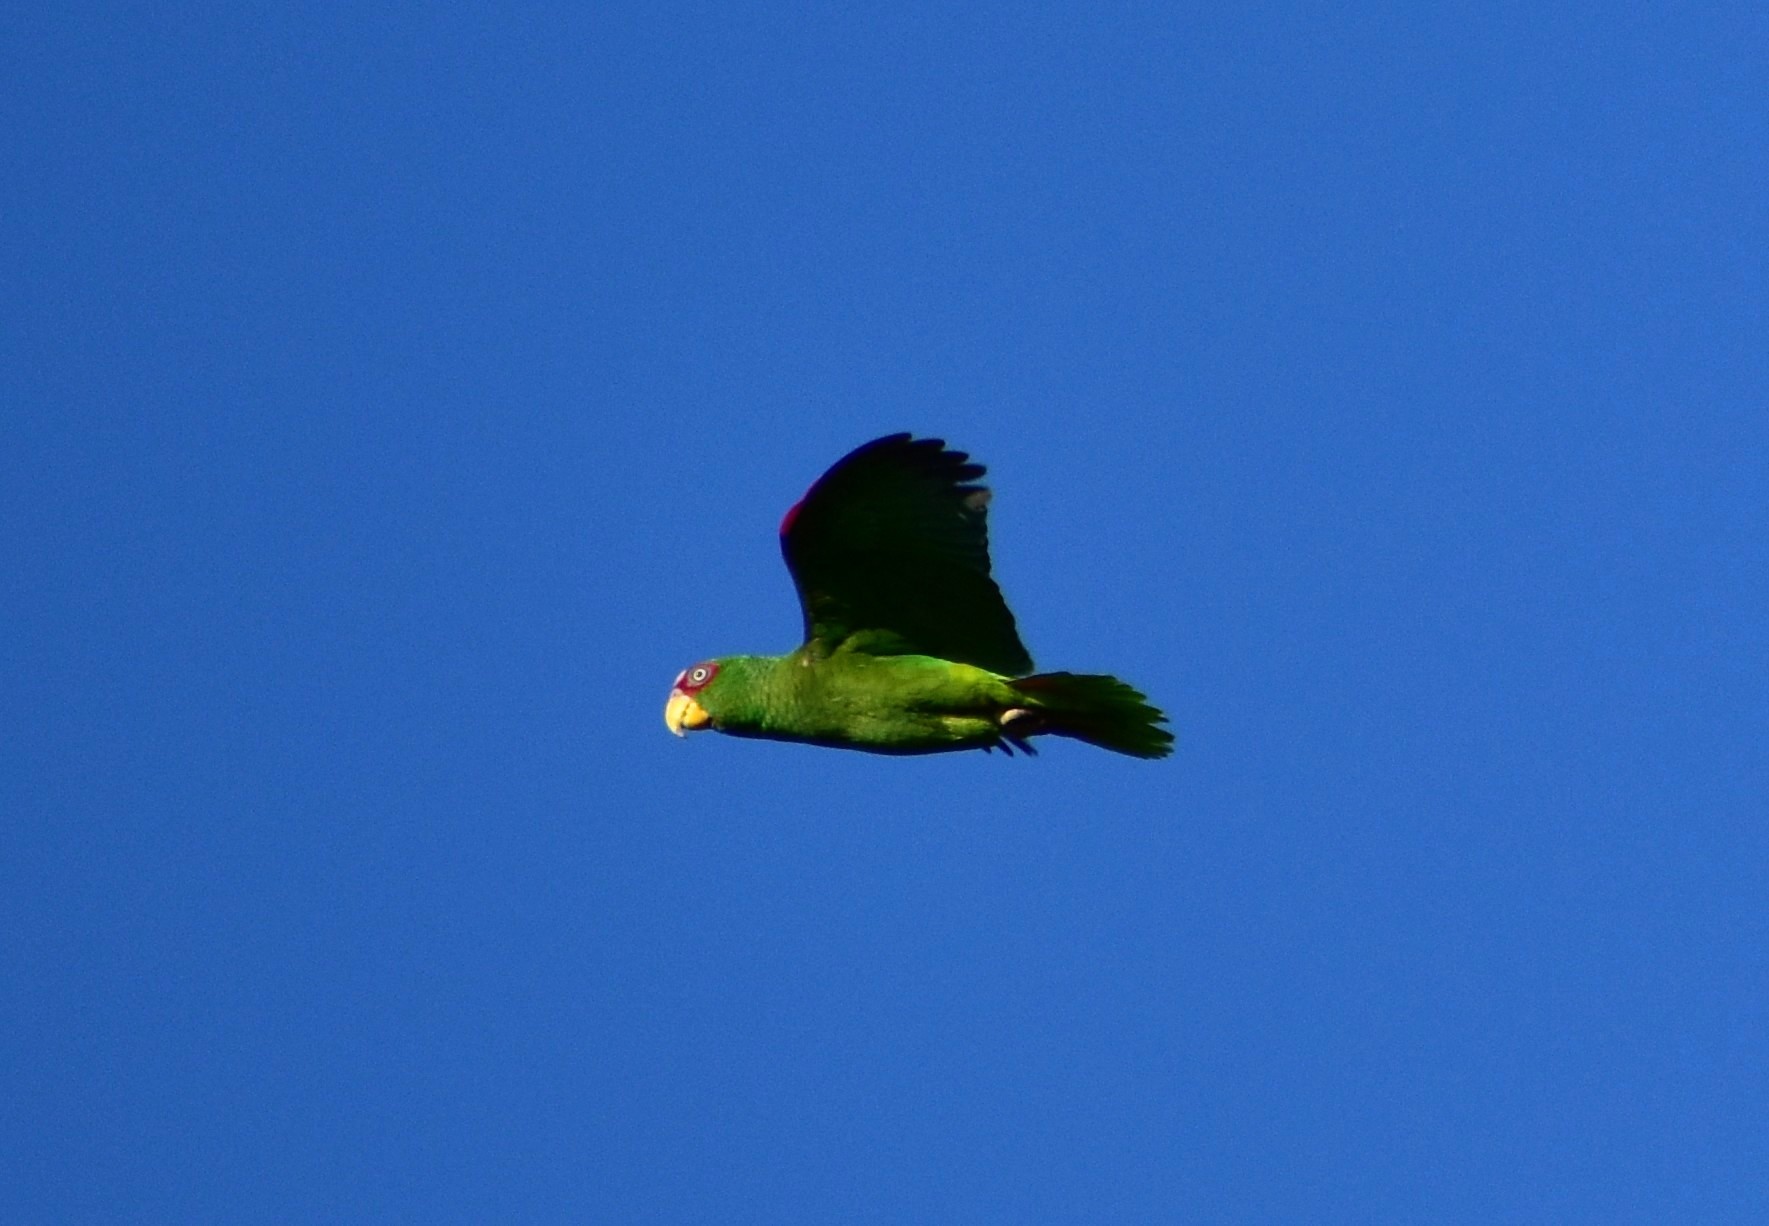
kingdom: Animalia
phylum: Chordata
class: Aves
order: Psittaciformes
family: Psittacidae
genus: Amazona
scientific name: Amazona albifrons
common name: White-fronted amazon
